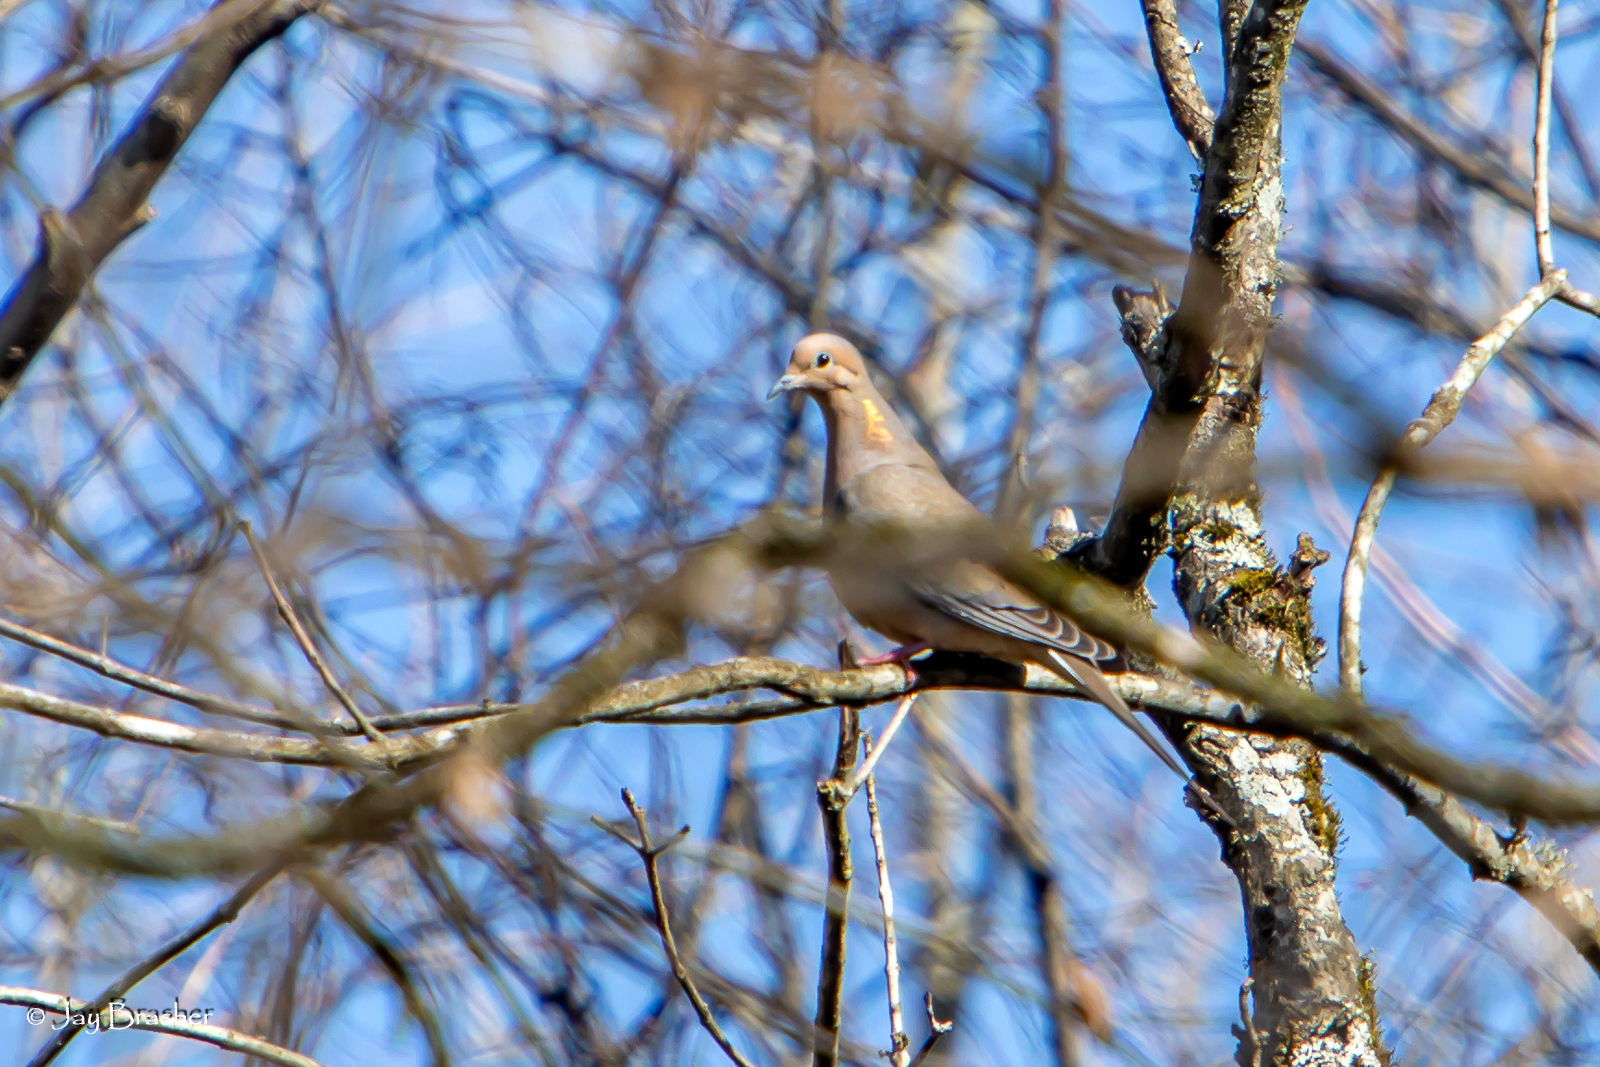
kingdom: Animalia
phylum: Chordata
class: Aves
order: Columbiformes
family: Columbidae
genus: Zenaida
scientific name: Zenaida macroura
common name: Mourning dove
